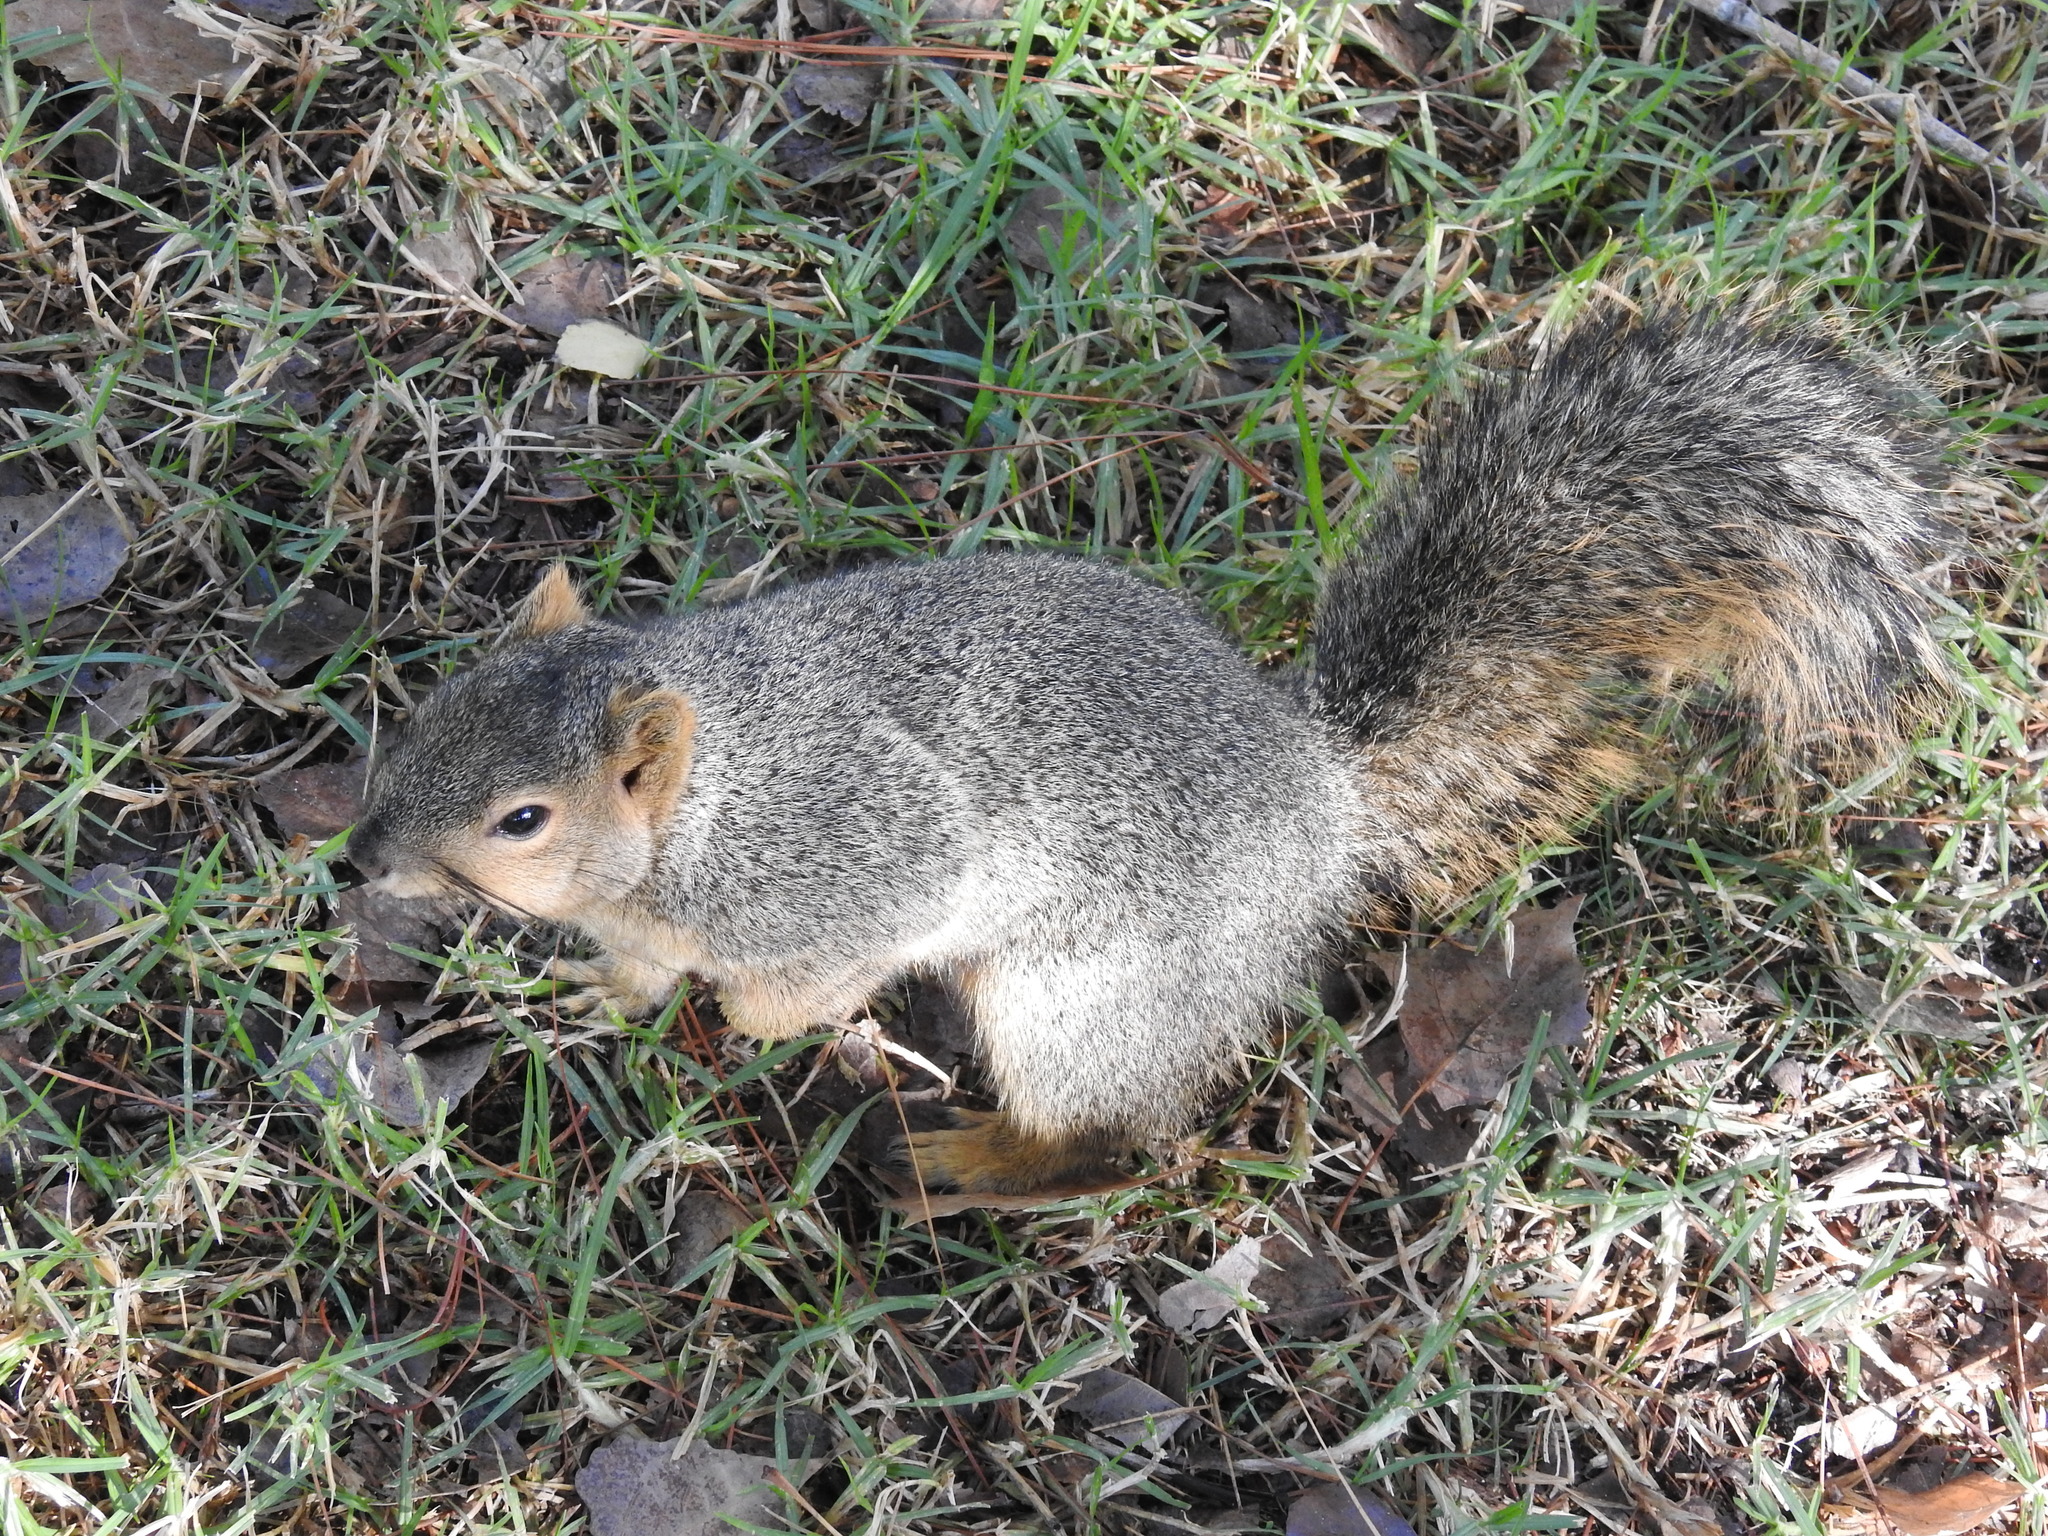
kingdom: Animalia
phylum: Chordata
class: Mammalia
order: Rodentia
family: Sciuridae
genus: Sciurus
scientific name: Sciurus niger
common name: Fox squirrel
